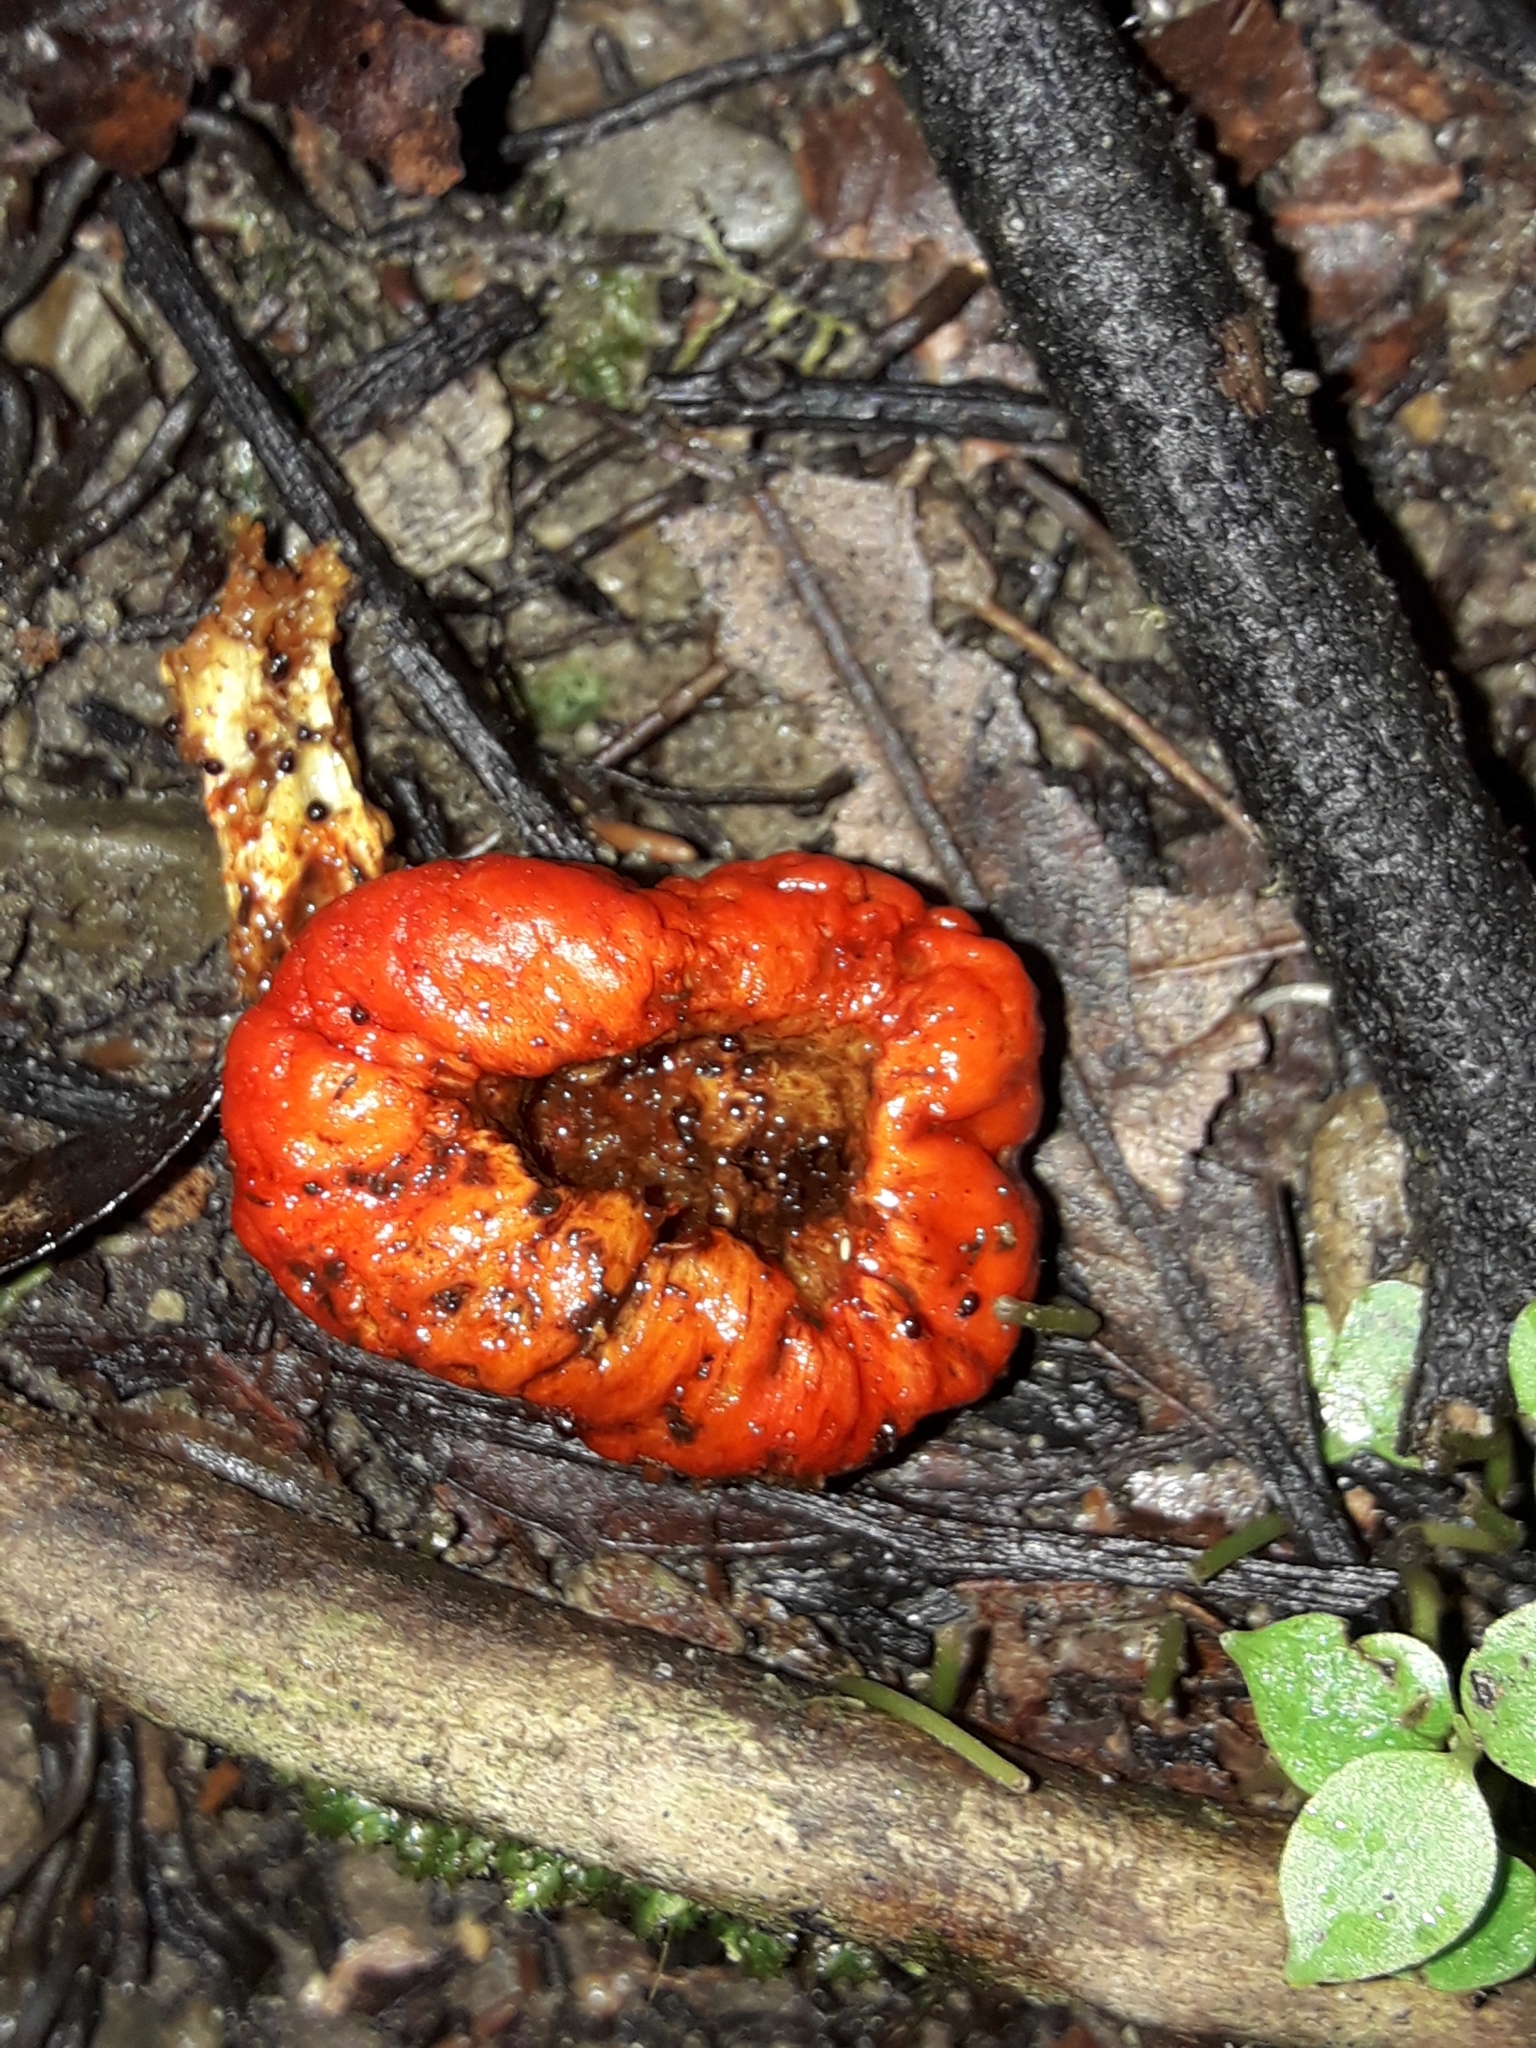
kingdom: Fungi
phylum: Basidiomycota
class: Agaricomycetes
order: Agaricales
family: Strophariaceae
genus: Leratiomyces
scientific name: Leratiomyces erythrocephalus
